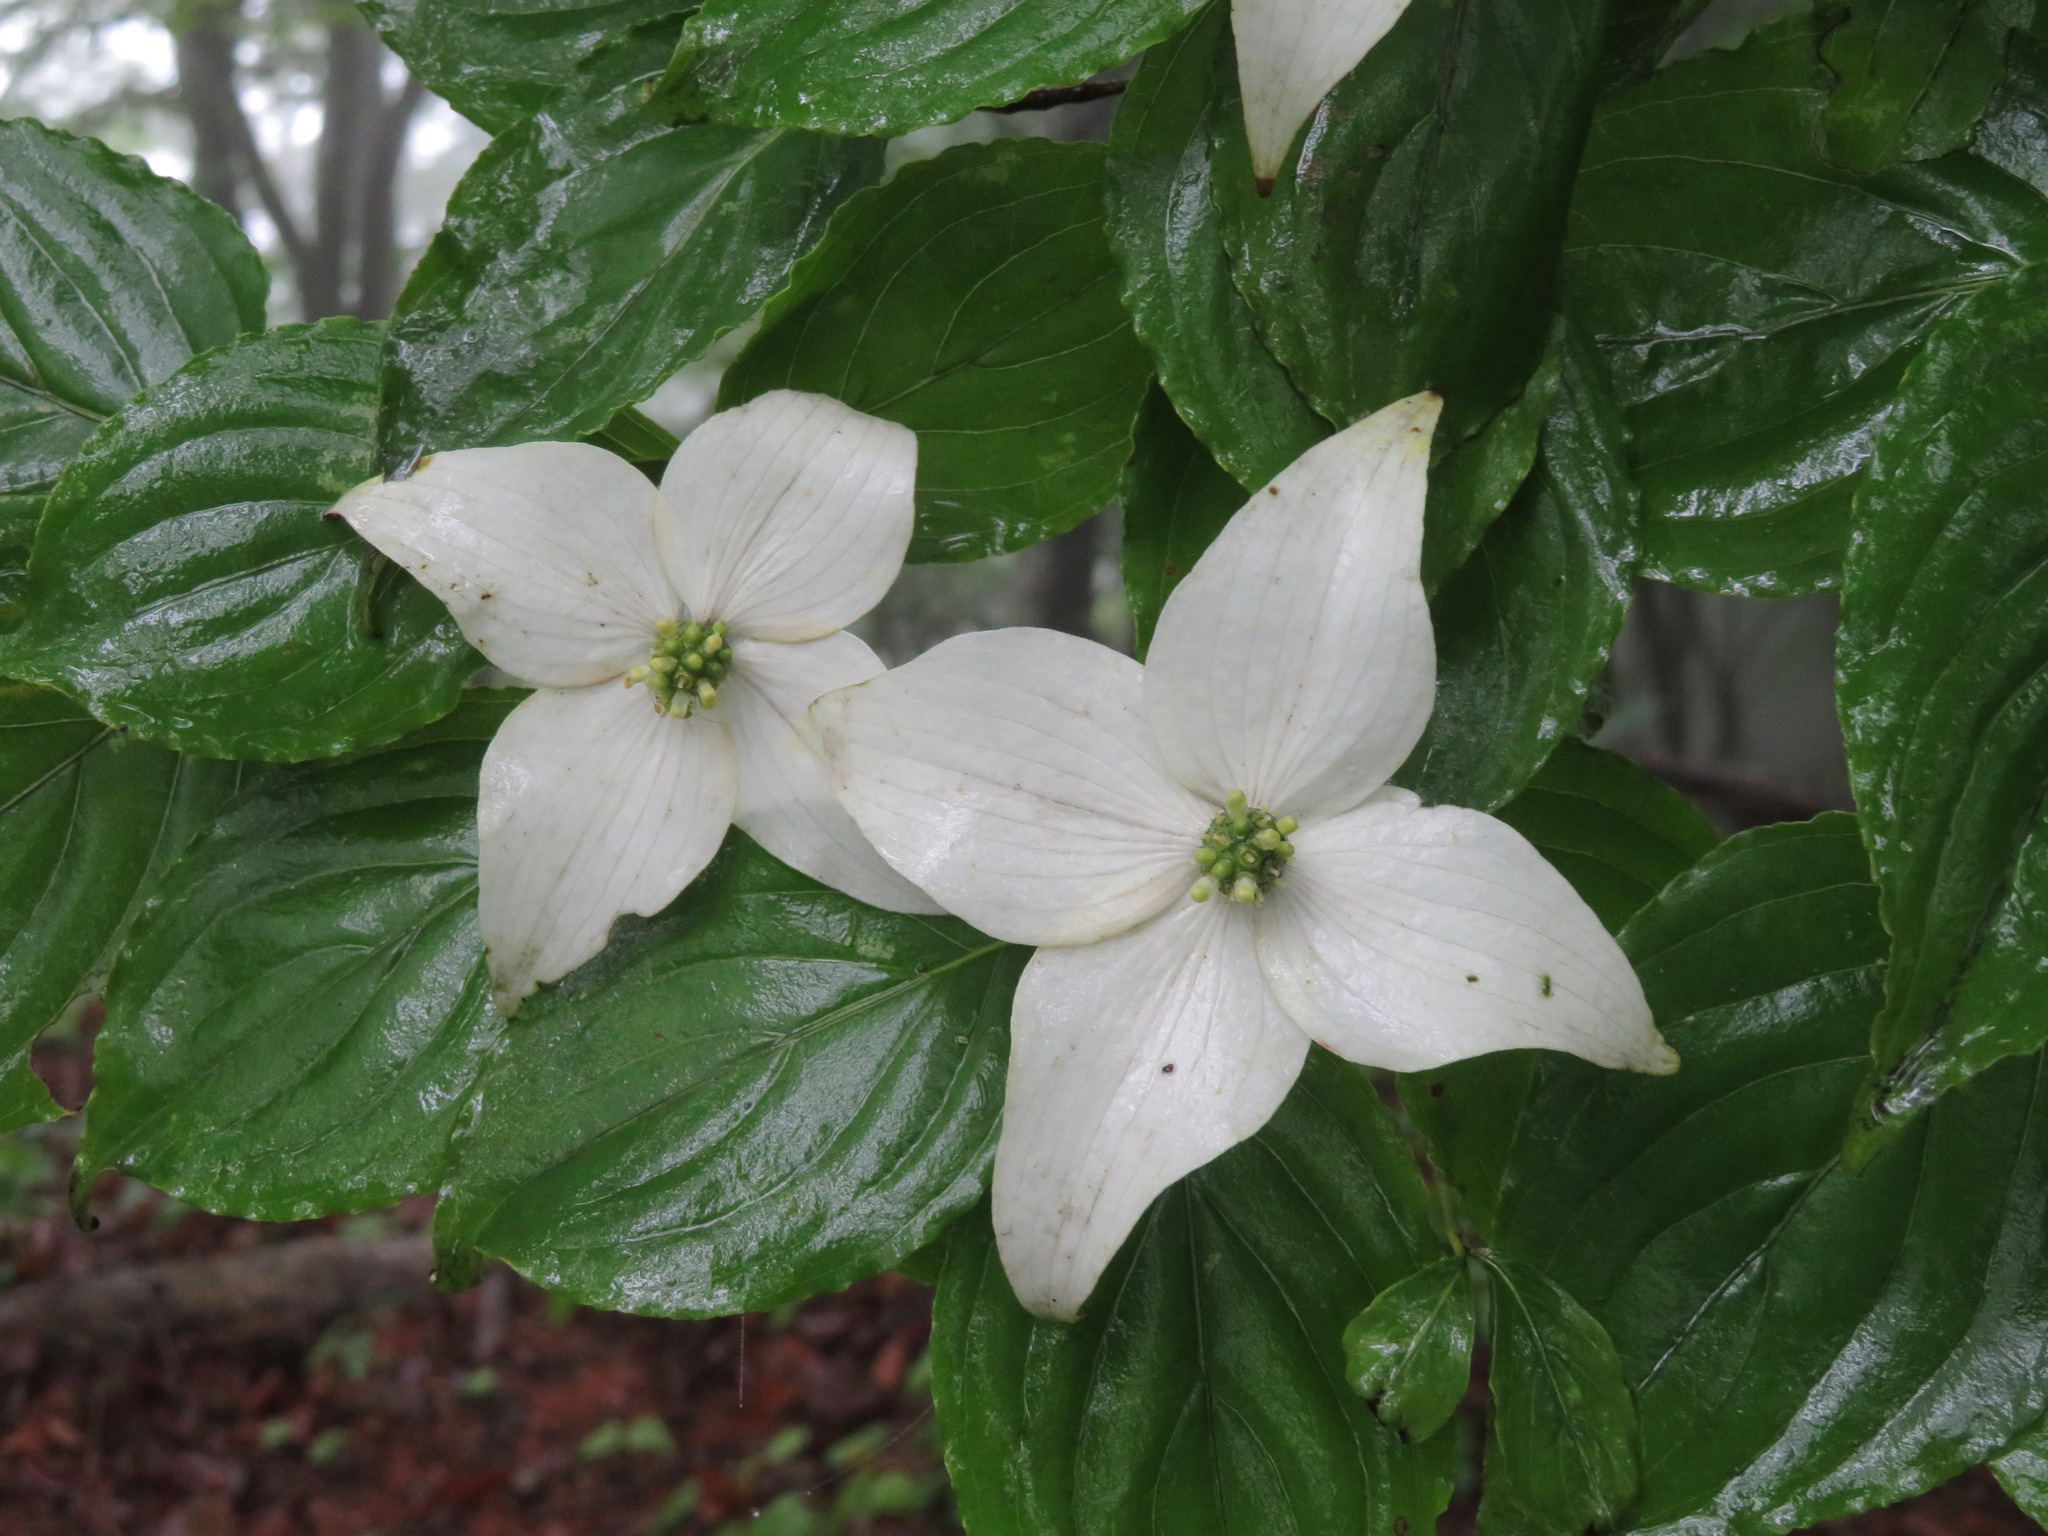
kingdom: Plantae
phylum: Tracheophyta
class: Magnoliopsida
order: Cornales
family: Cornaceae
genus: Cornus
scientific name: Cornus kousa
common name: Japanese dogwood
